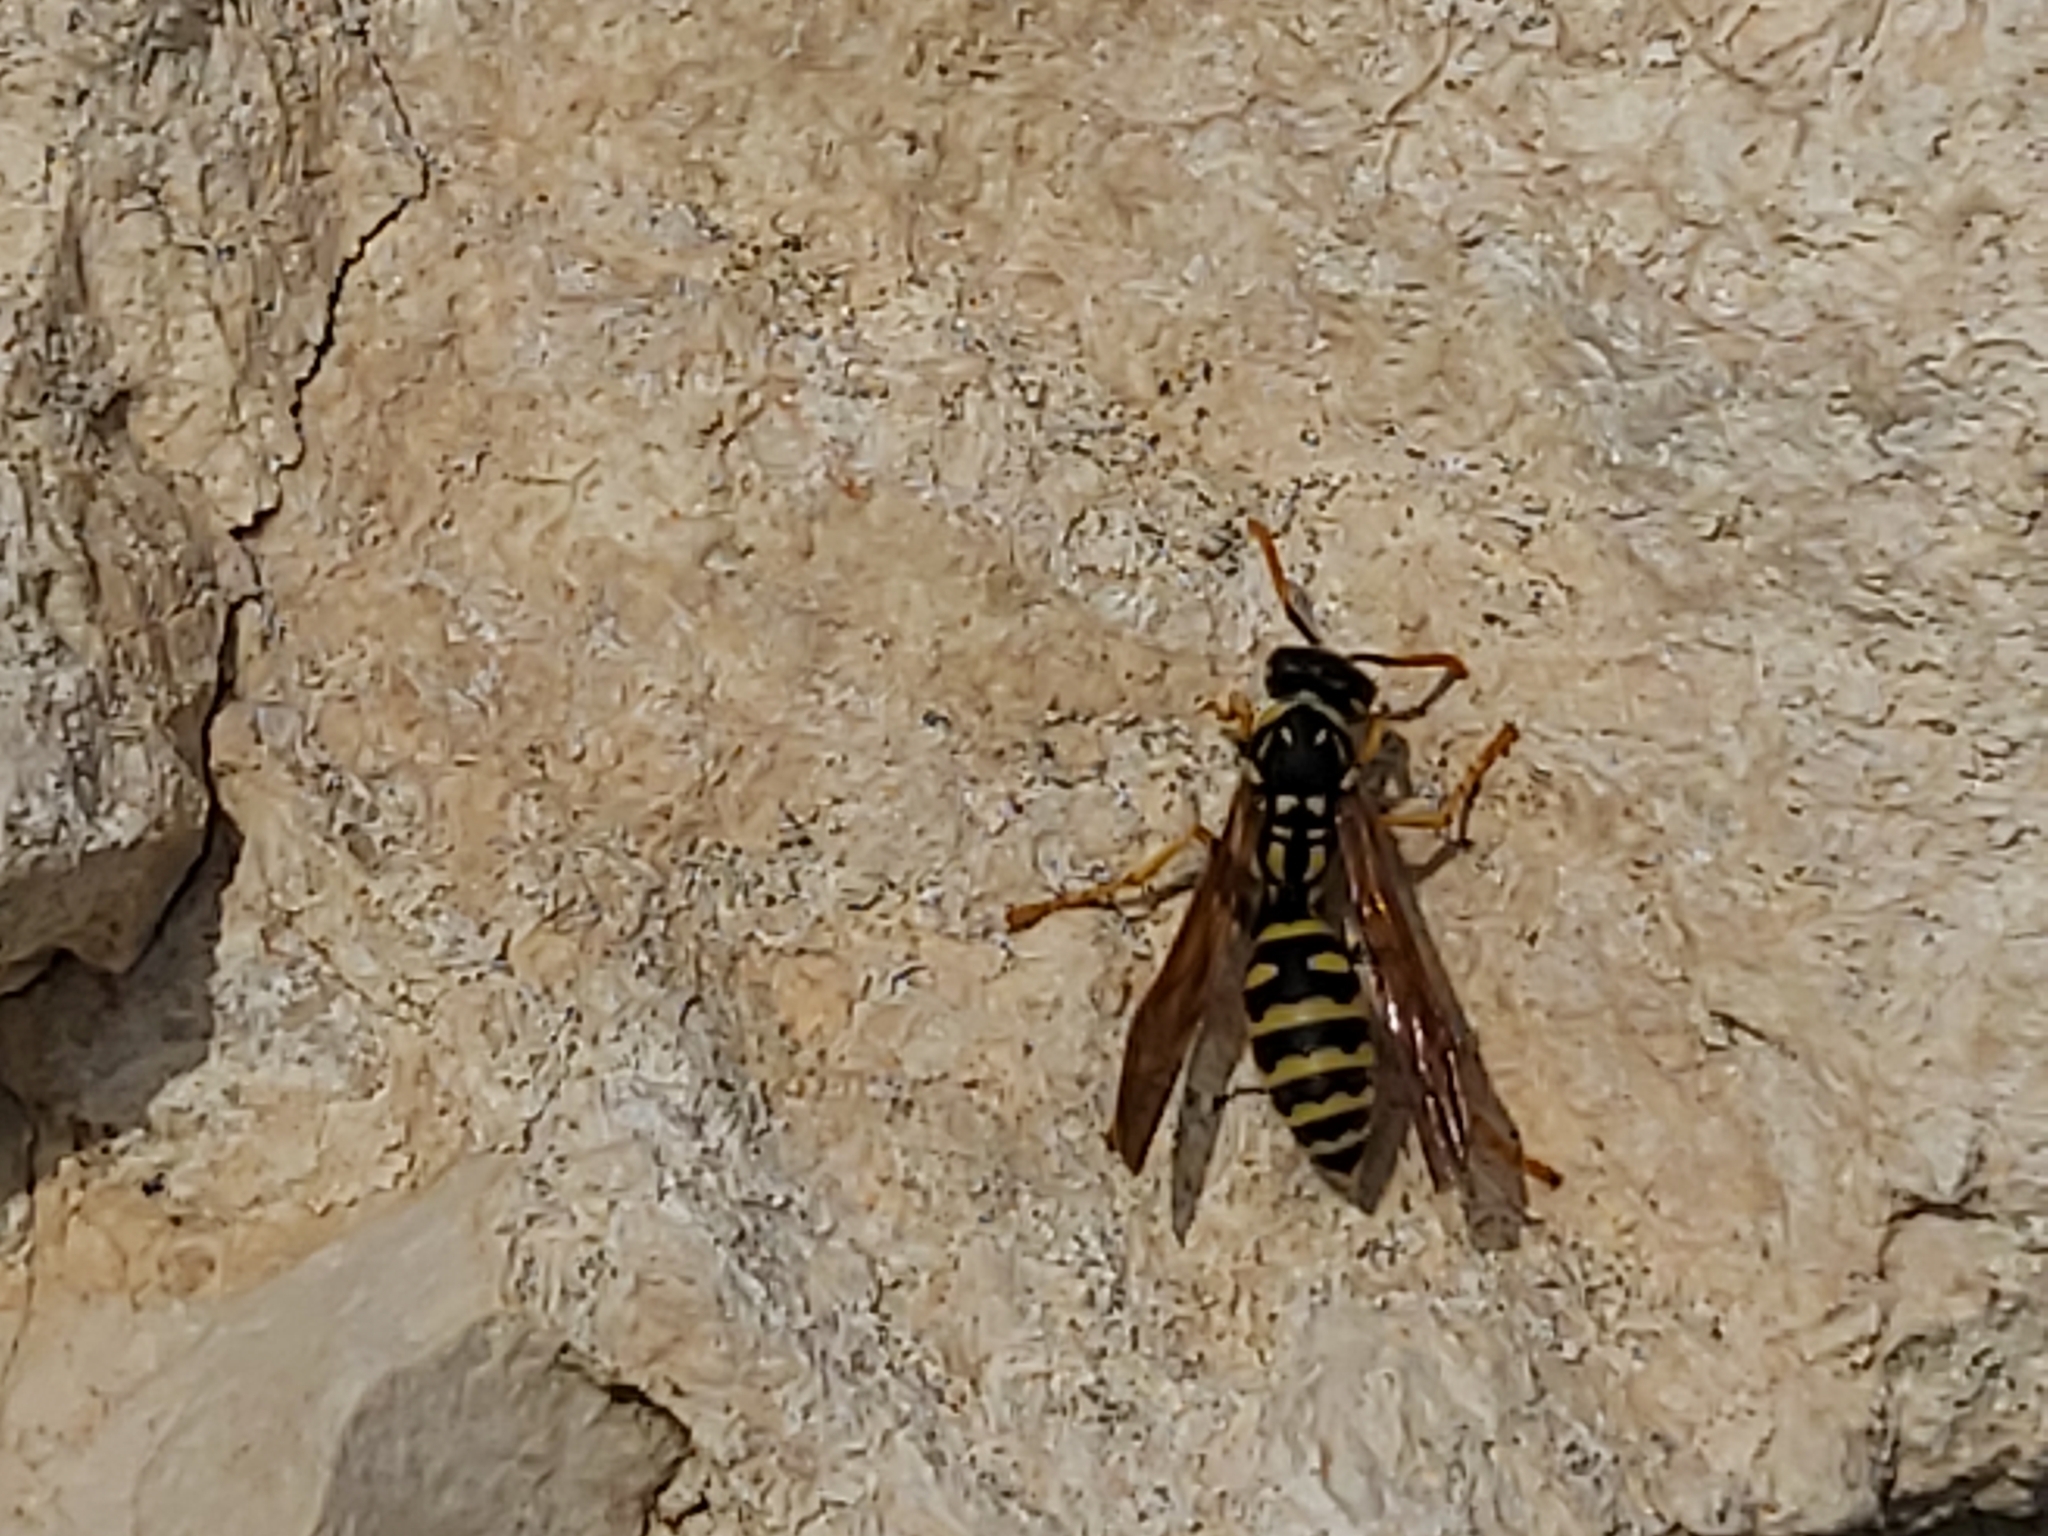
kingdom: Animalia
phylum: Arthropoda
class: Insecta
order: Hymenoptera
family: Eumenidae
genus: Polistes
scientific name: Polistes dominula
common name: Paper wasp
